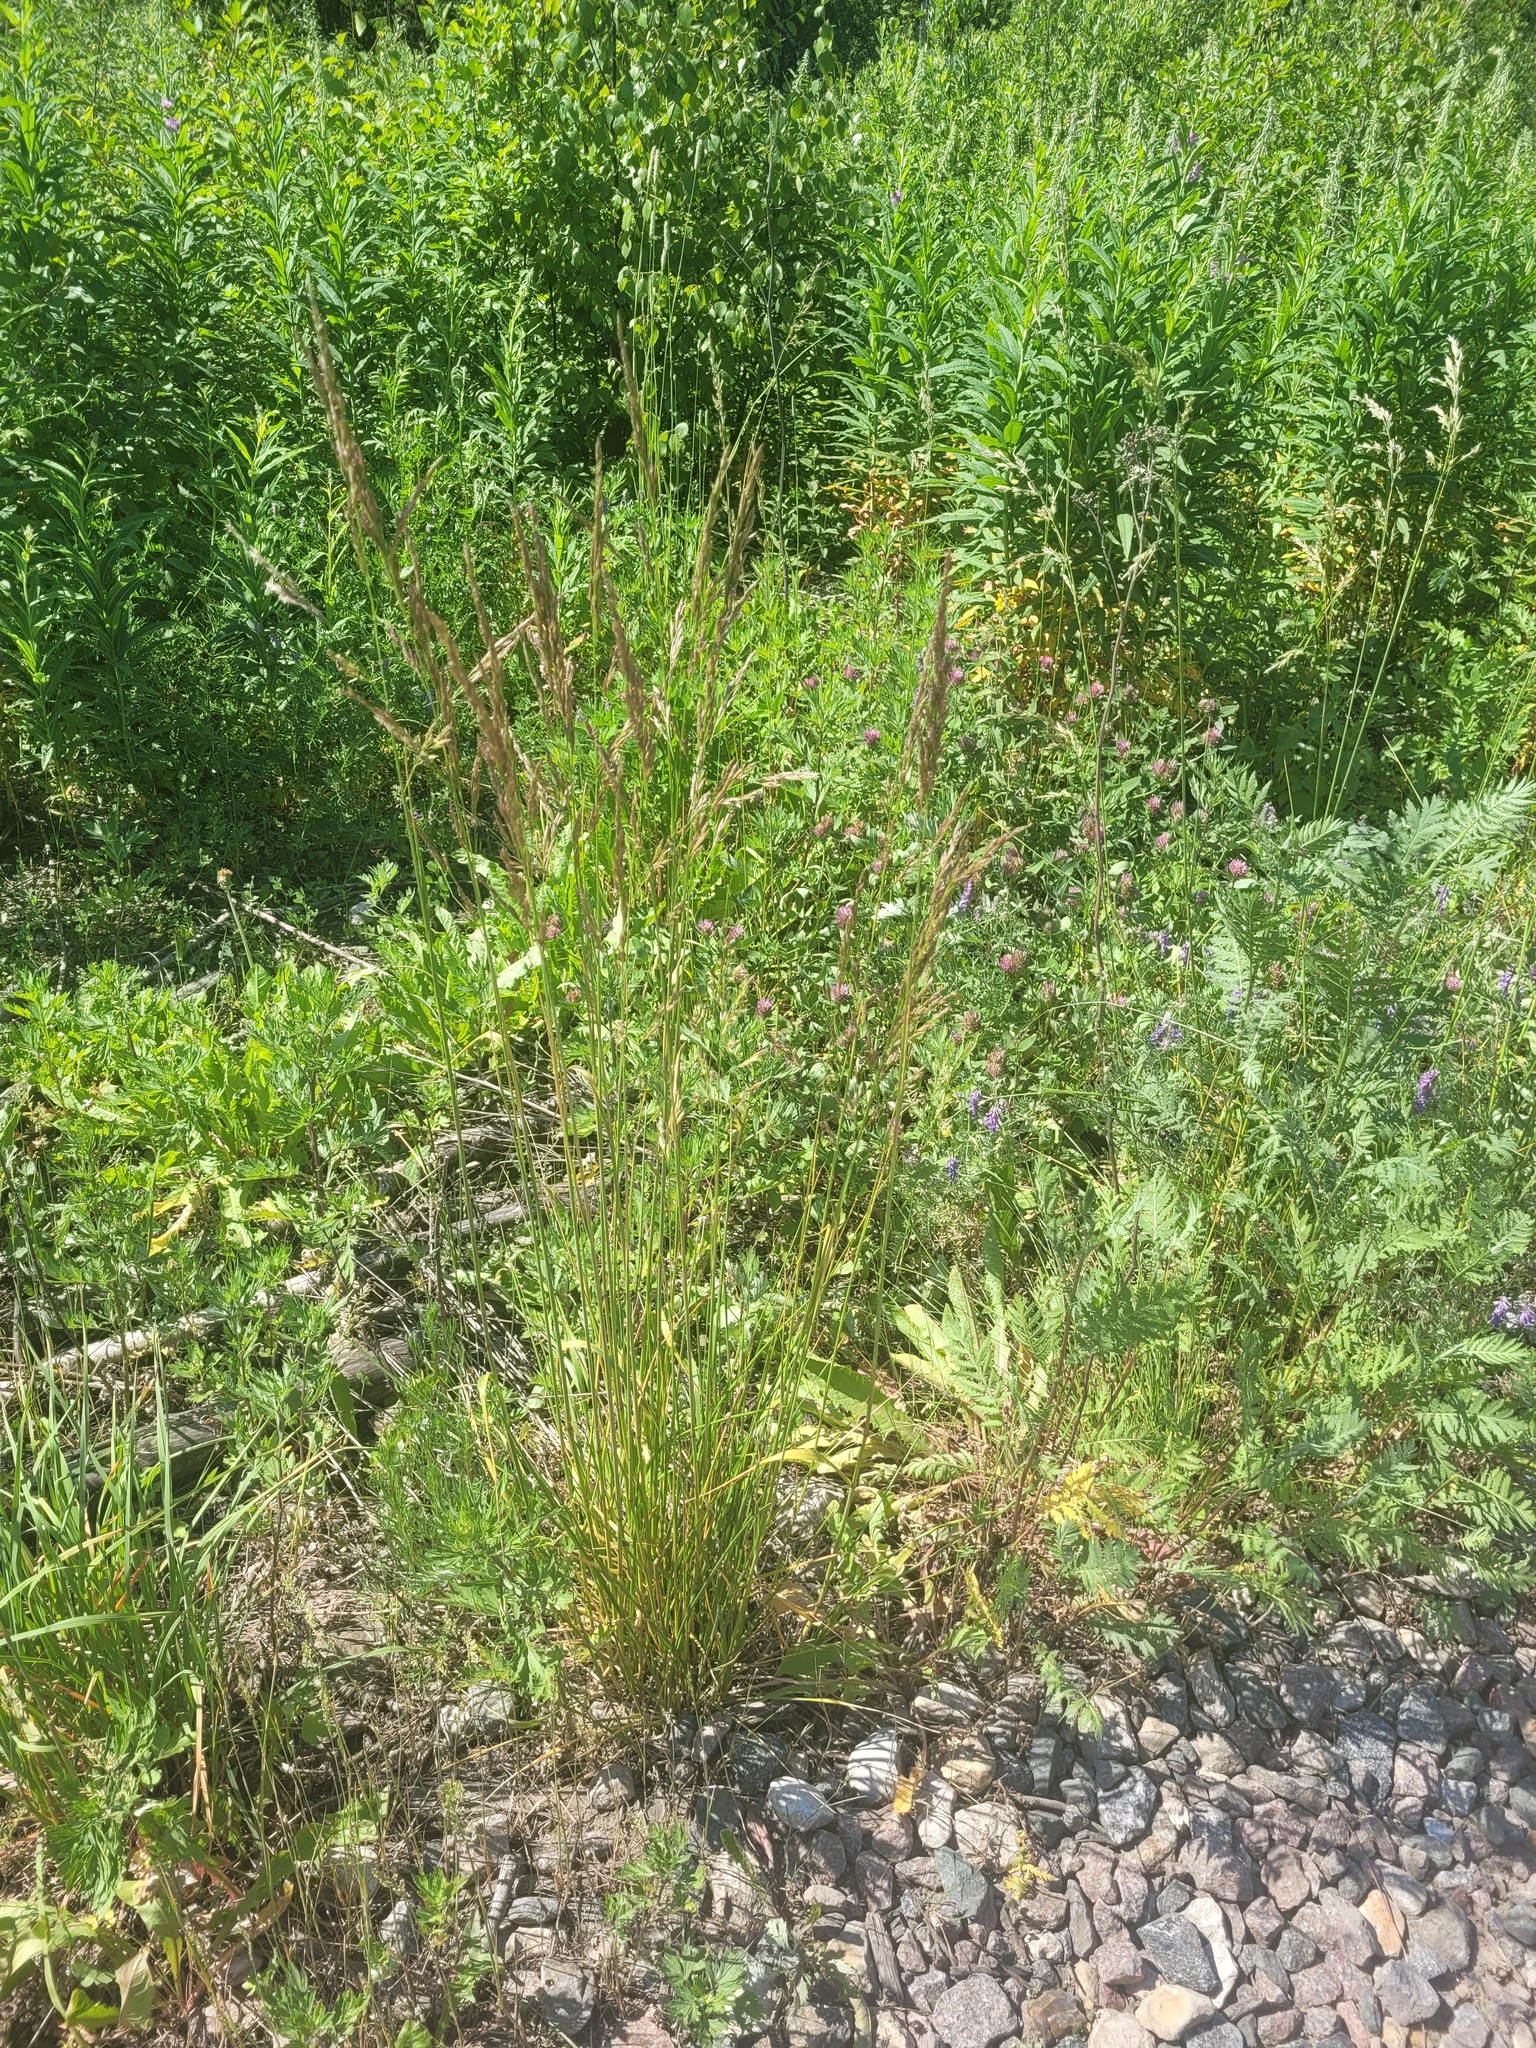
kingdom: Plantae
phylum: Tracheophyta
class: Liliopsida
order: Poales
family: Poaceae
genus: Lolium
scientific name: Lolium arundinaceum
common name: Reed fescue
